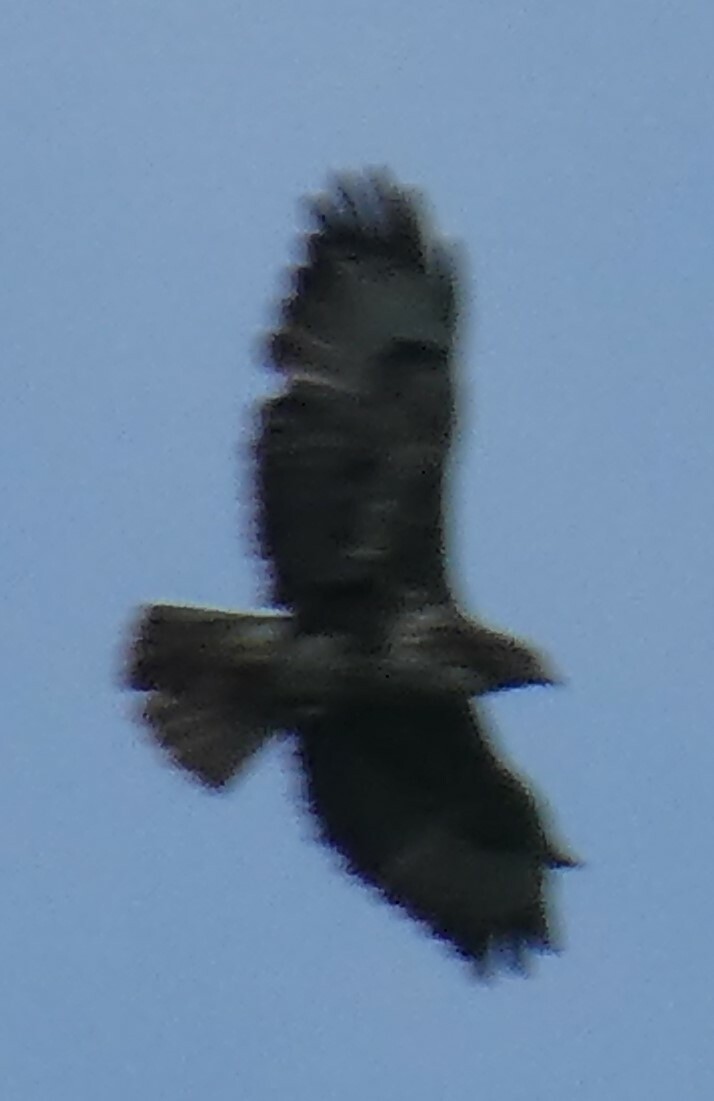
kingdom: Animalia
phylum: Chordata
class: Aves
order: Accipitriformes
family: Accipitridae
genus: Buteo
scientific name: Buteo buteo
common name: Common buzzard
